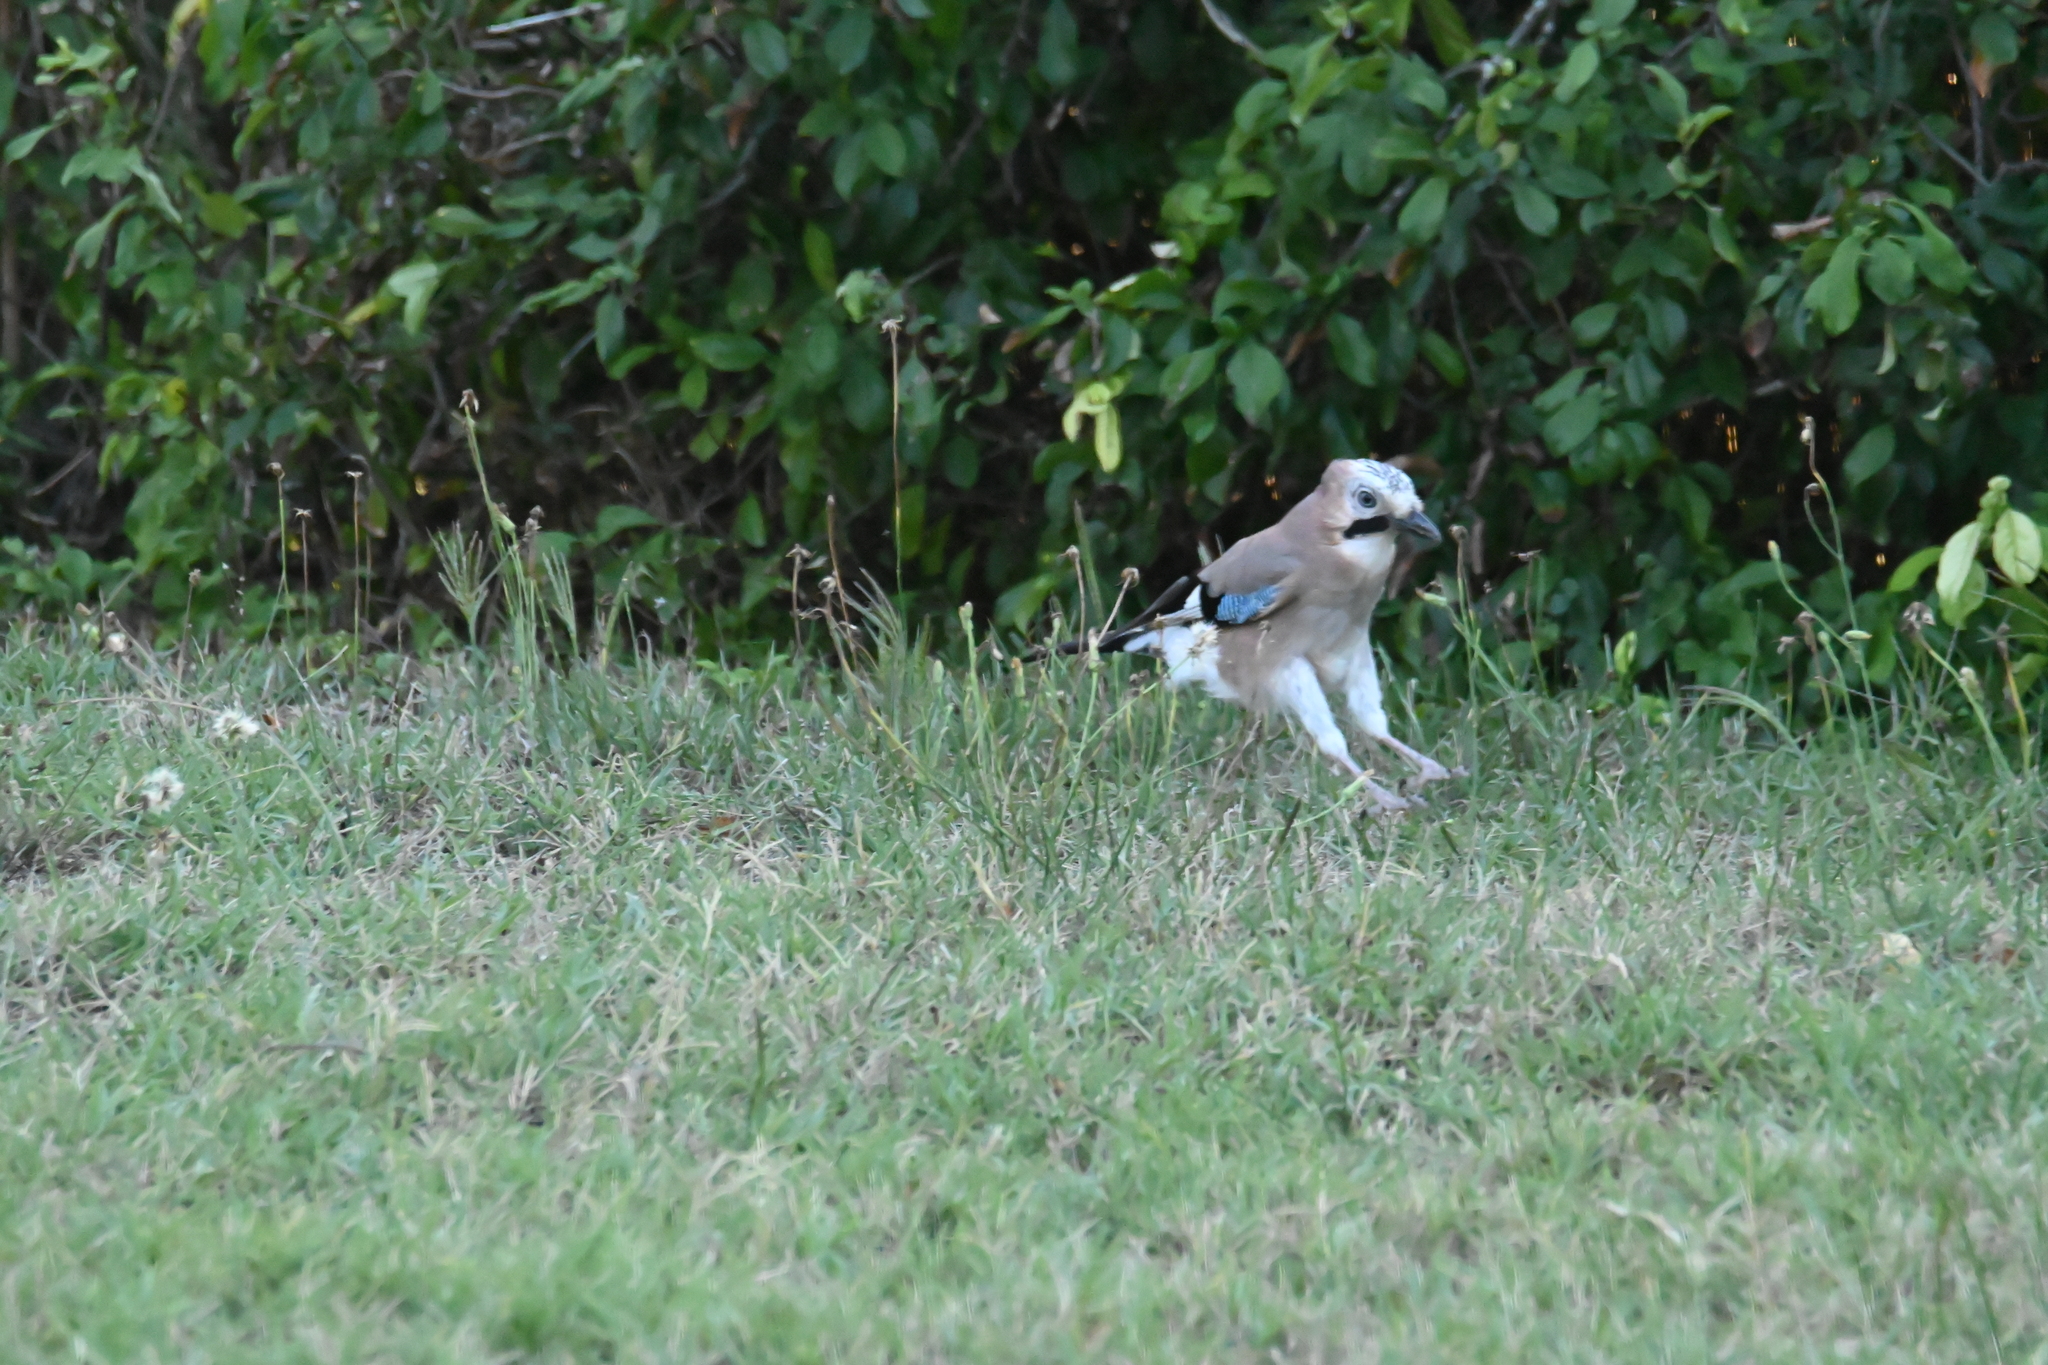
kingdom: Animalia
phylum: Chordata
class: Aves
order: Passeriformes
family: Corvidae
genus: Garrulus
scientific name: Garrulus glandarius
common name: Eurasian jay
